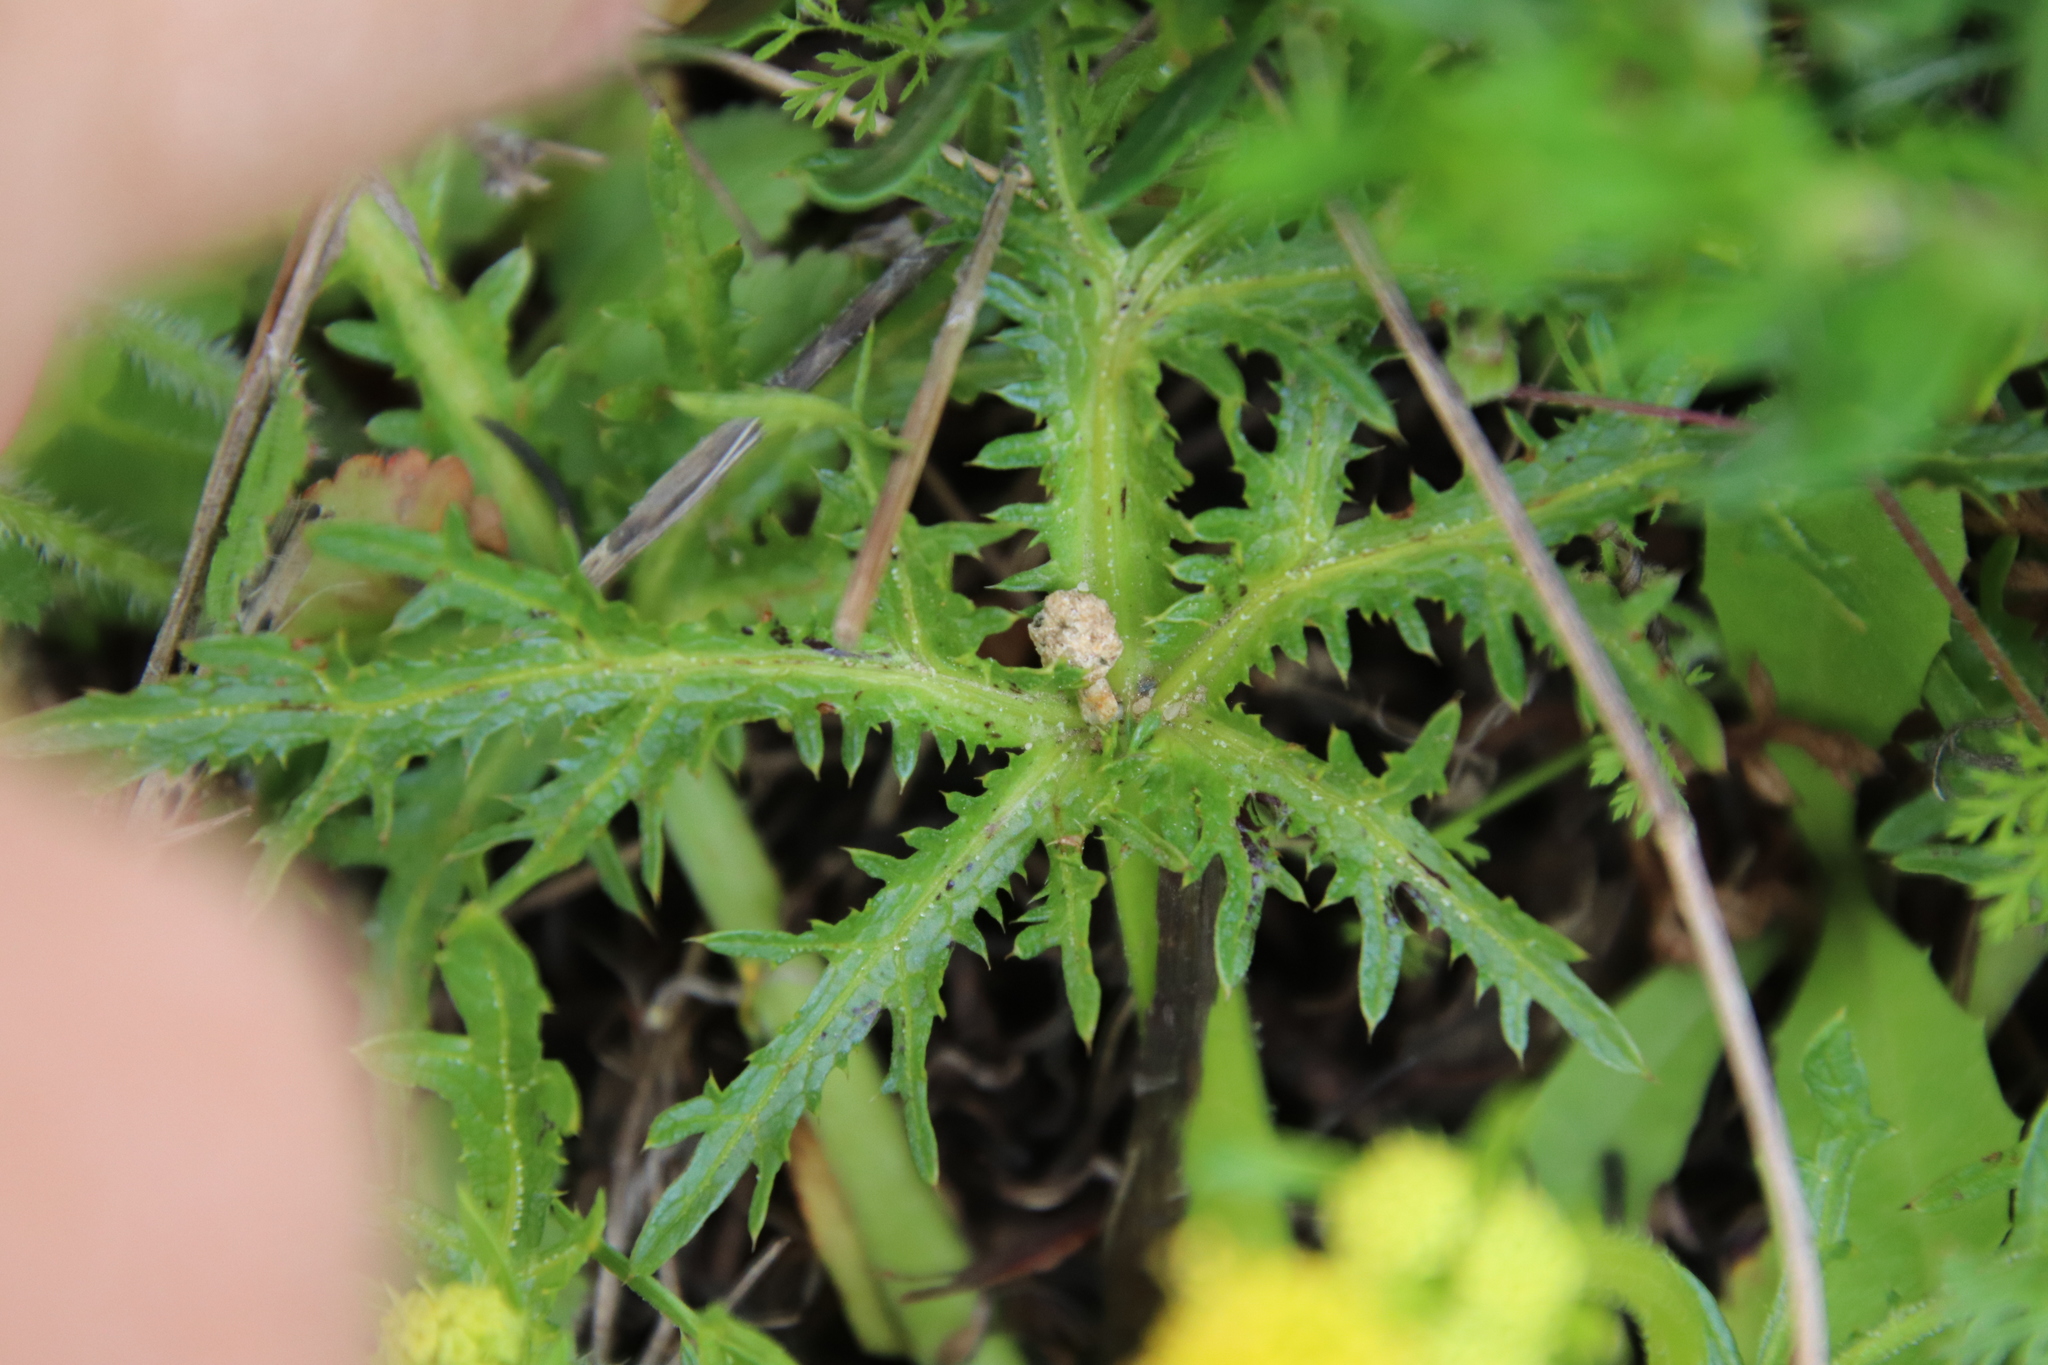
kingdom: Plantae
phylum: Tracheophyta
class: Magnoliopsida
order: Apiales
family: Apiaceae
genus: Sanicula
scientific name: Sanicula arguta
